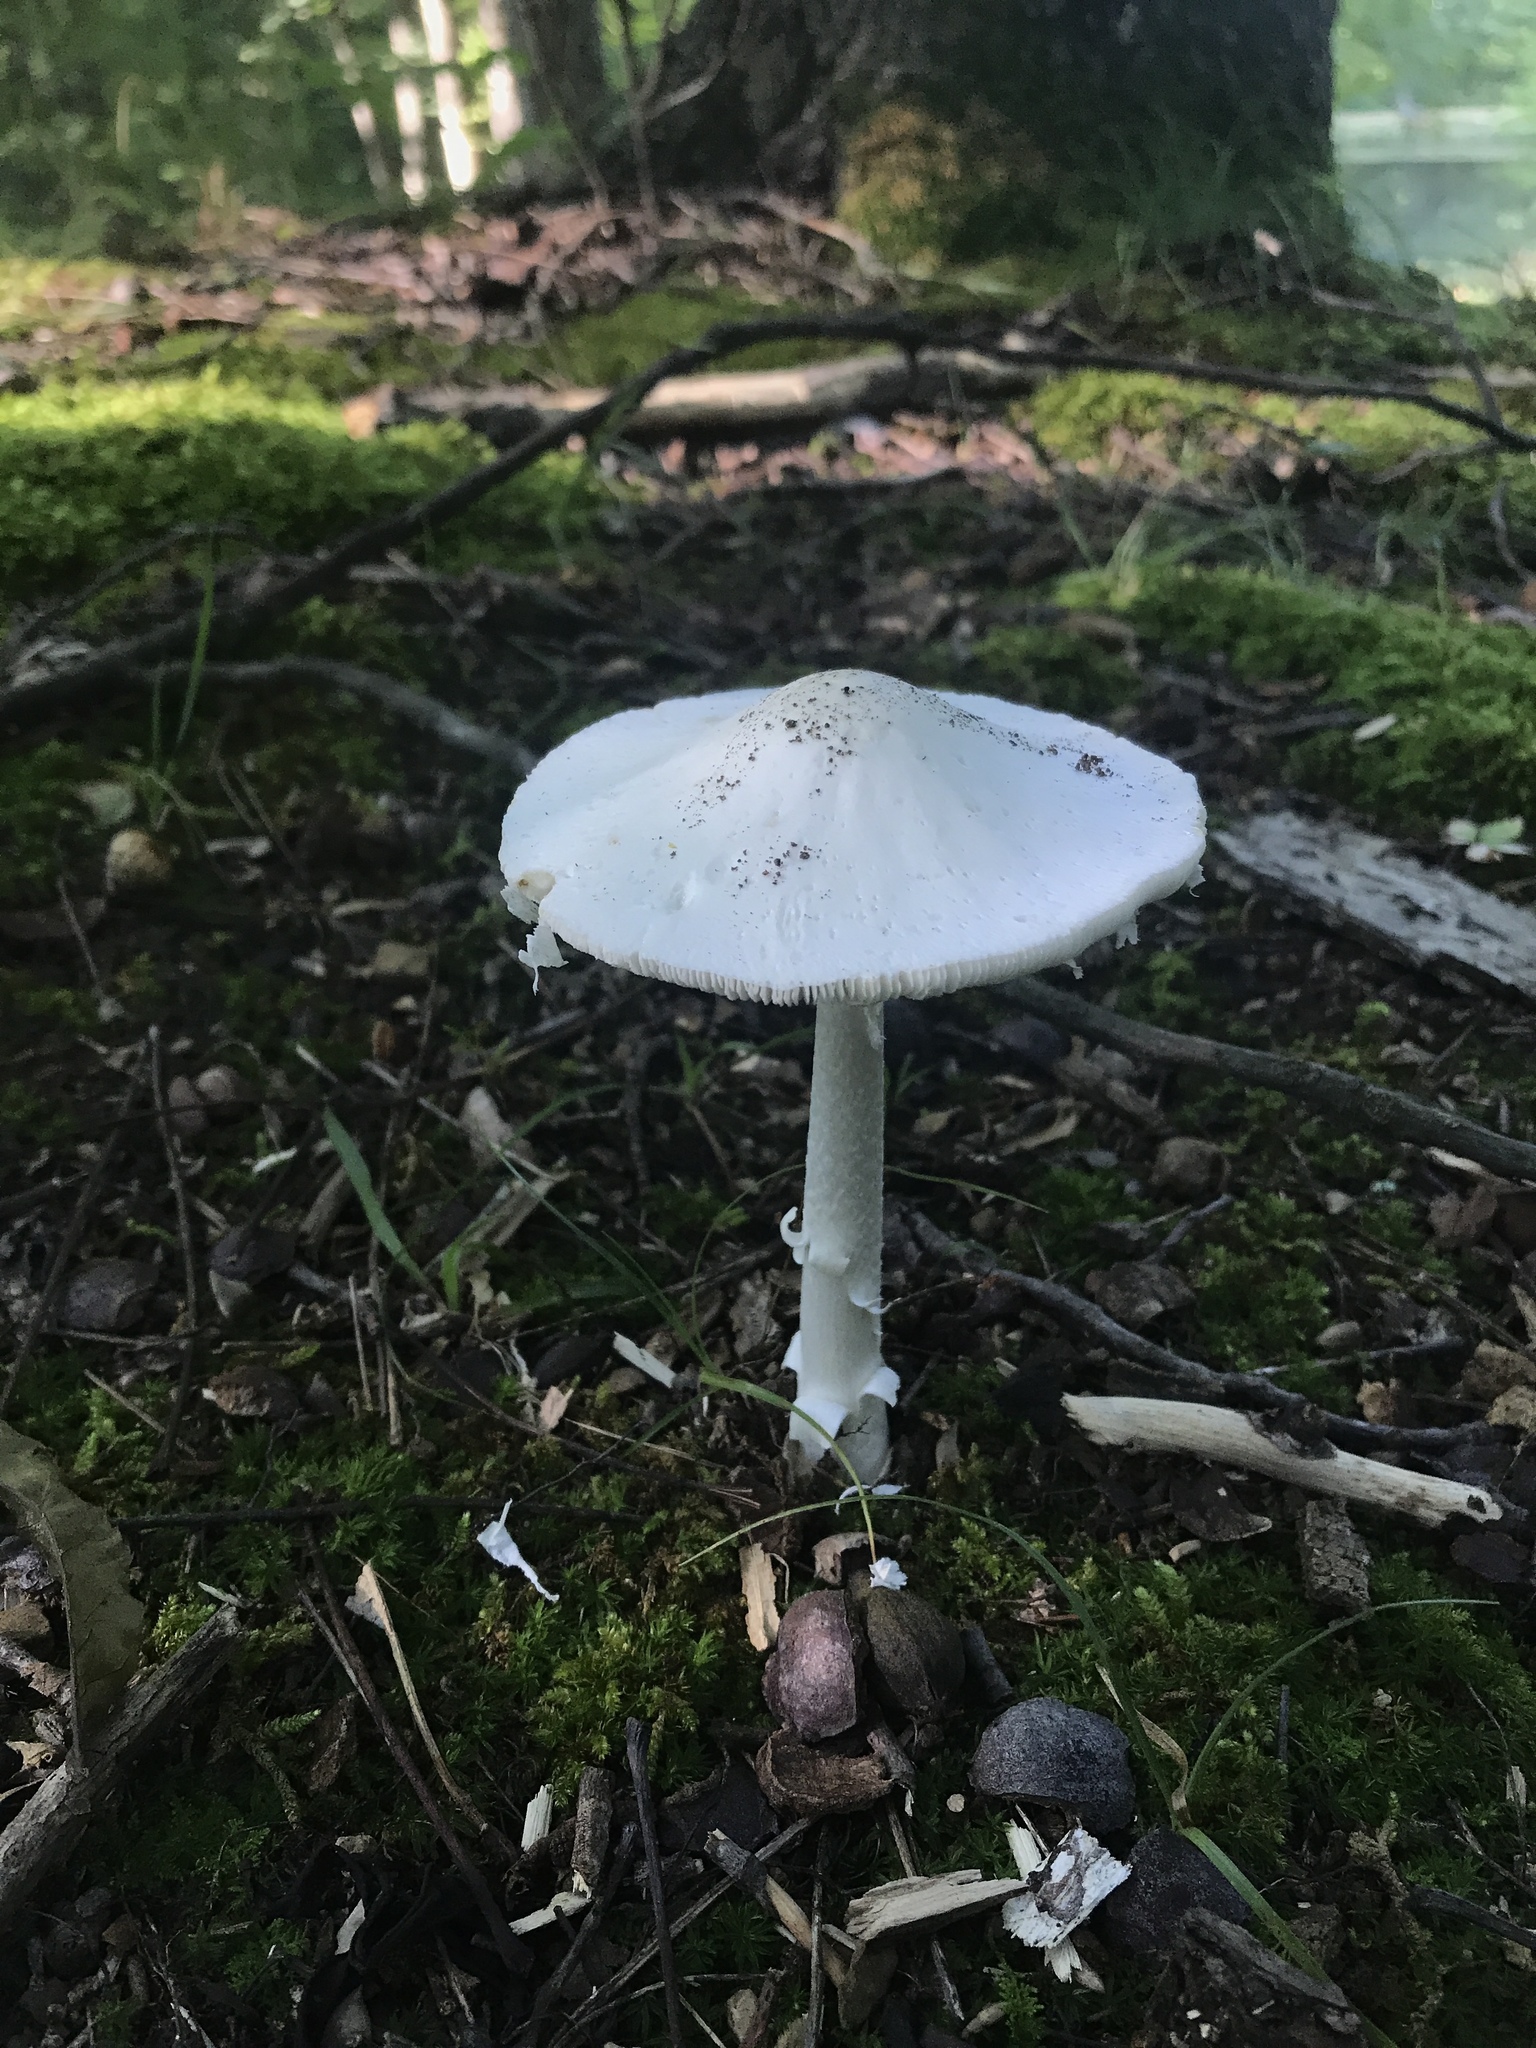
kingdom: Fungi
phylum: Basidiomycota
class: Agaricomycetes
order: Agaricales
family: Amanitaceae
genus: Amanita
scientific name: Amanita bisporigera
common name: Eastern north american destroying angel
